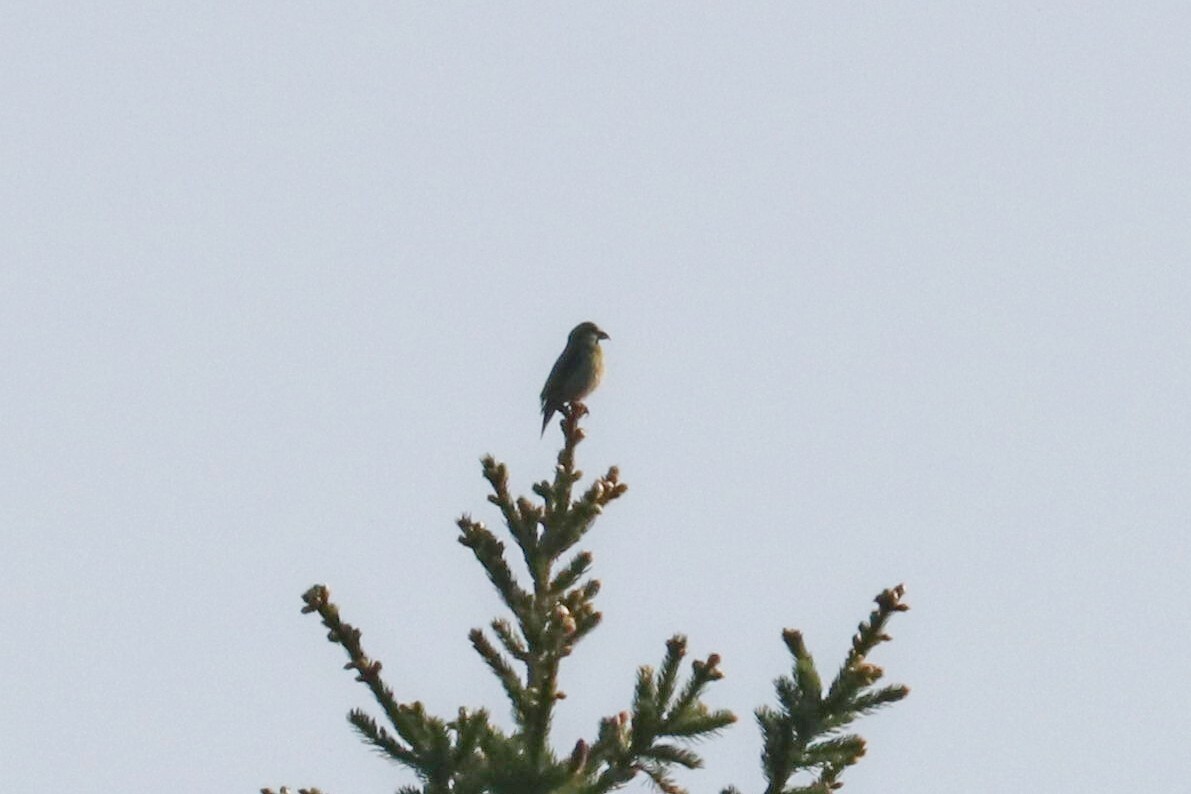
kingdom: Animalia
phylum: Chordata
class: Aves
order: Passeriformes
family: Fringillidae
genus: Loxia
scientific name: Loxia curvirostra
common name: Red crossbill
